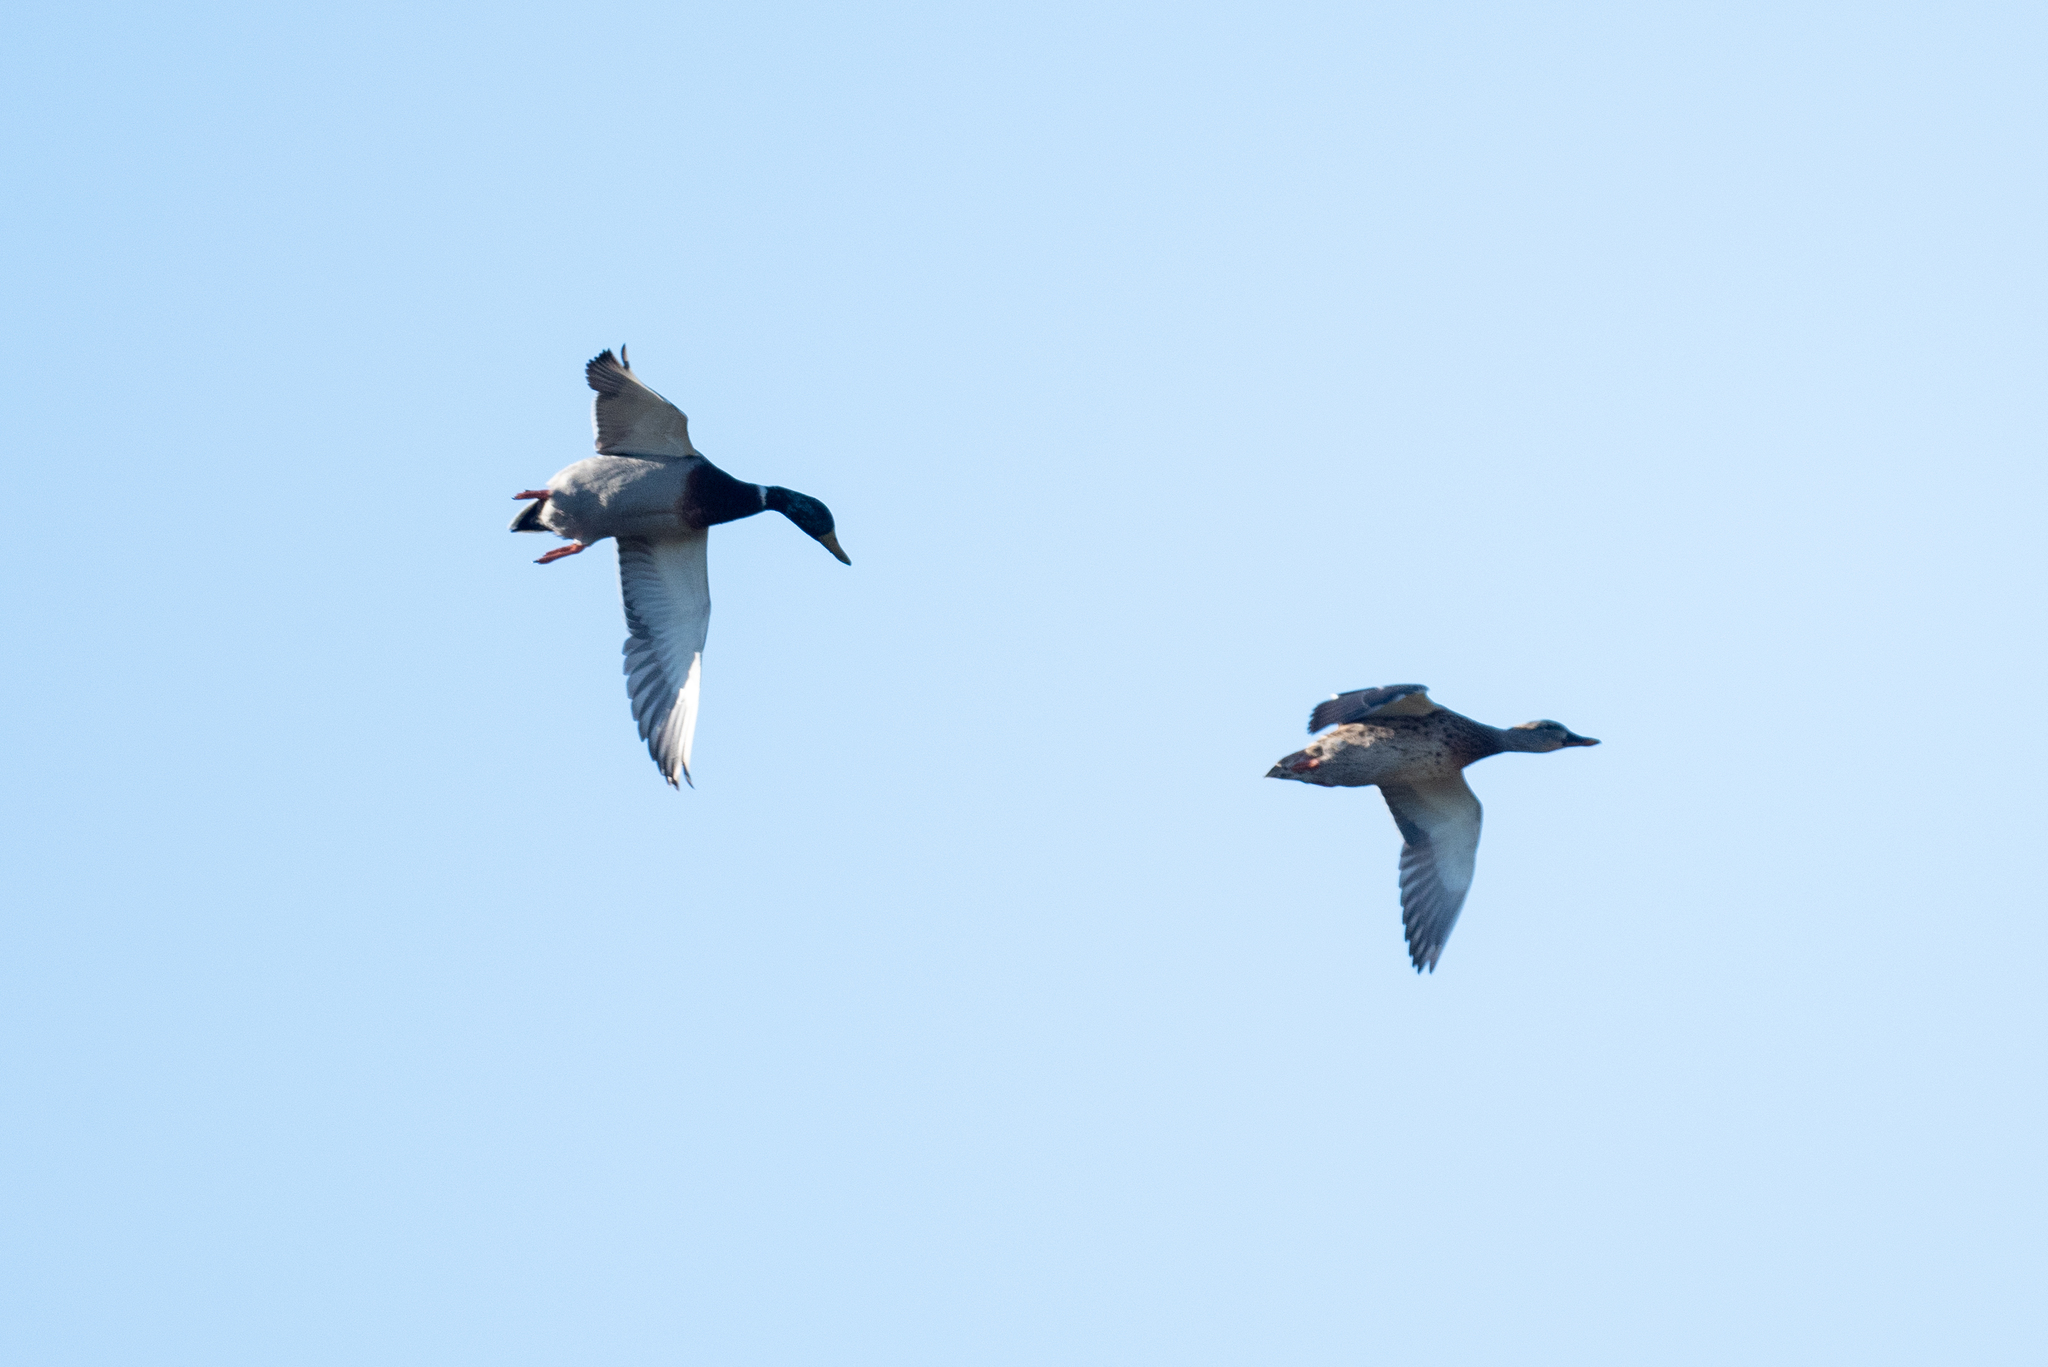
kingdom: Animalia
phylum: Chordata
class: Aves
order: Anseriformes
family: Anatidae
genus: Anas
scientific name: Anas platyrhynchos
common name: Mallard
